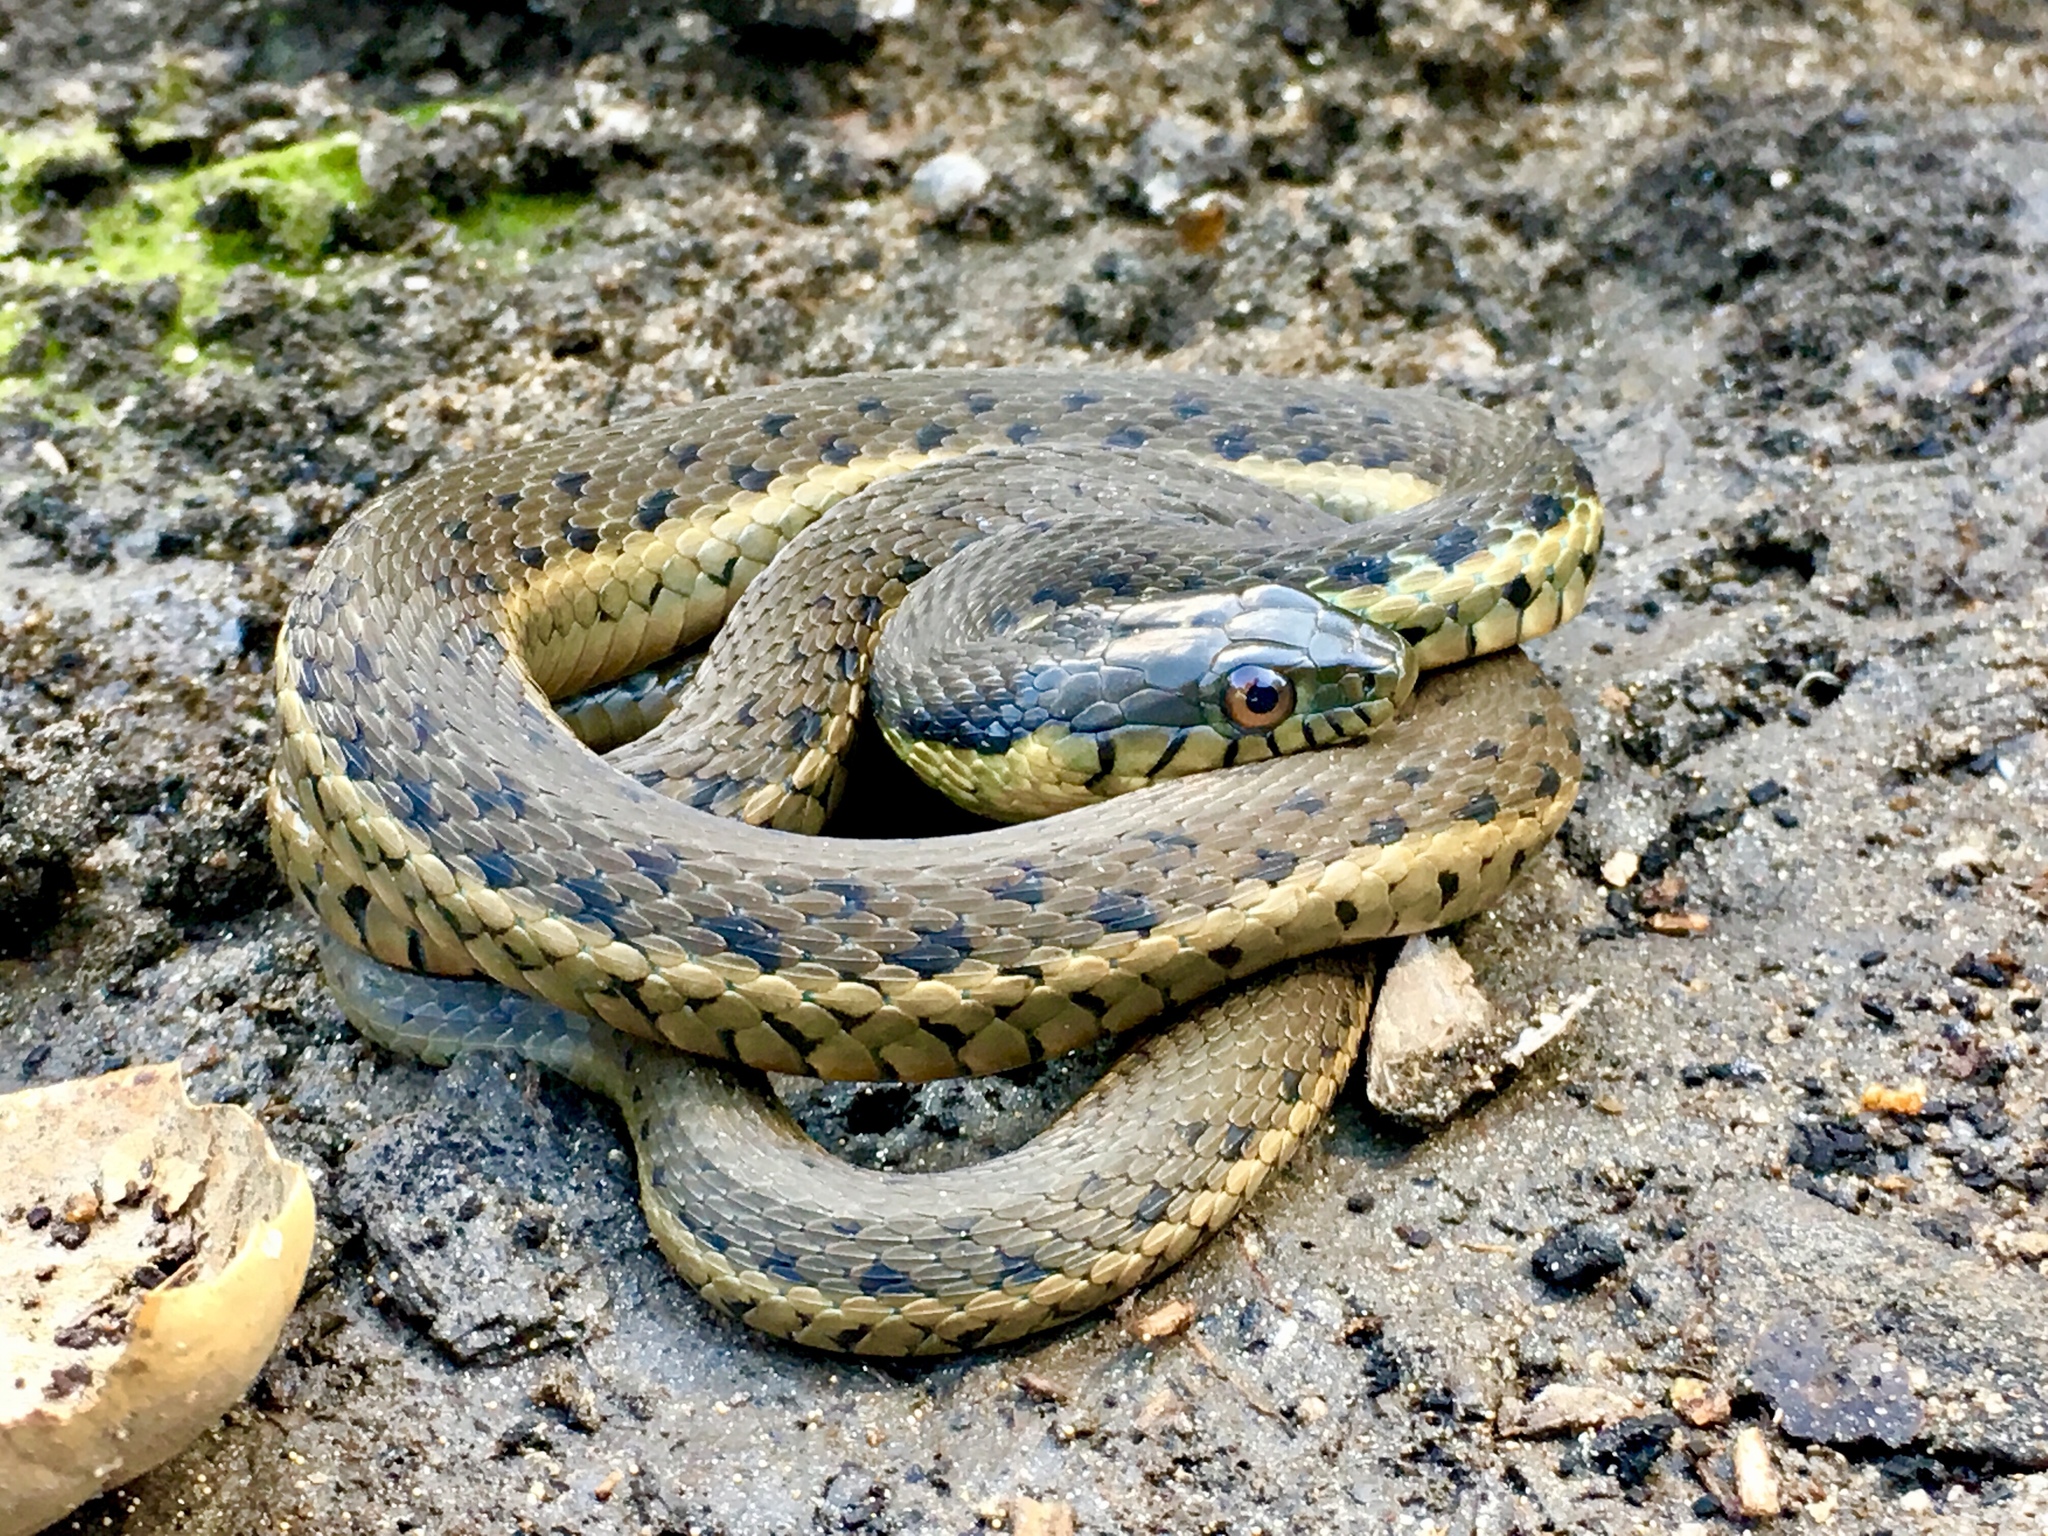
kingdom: Animalia
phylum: Chordata
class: Squamata
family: Colubridae
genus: Thamnophis
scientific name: Thamnophis hammondii
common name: Two-striped garter snake
